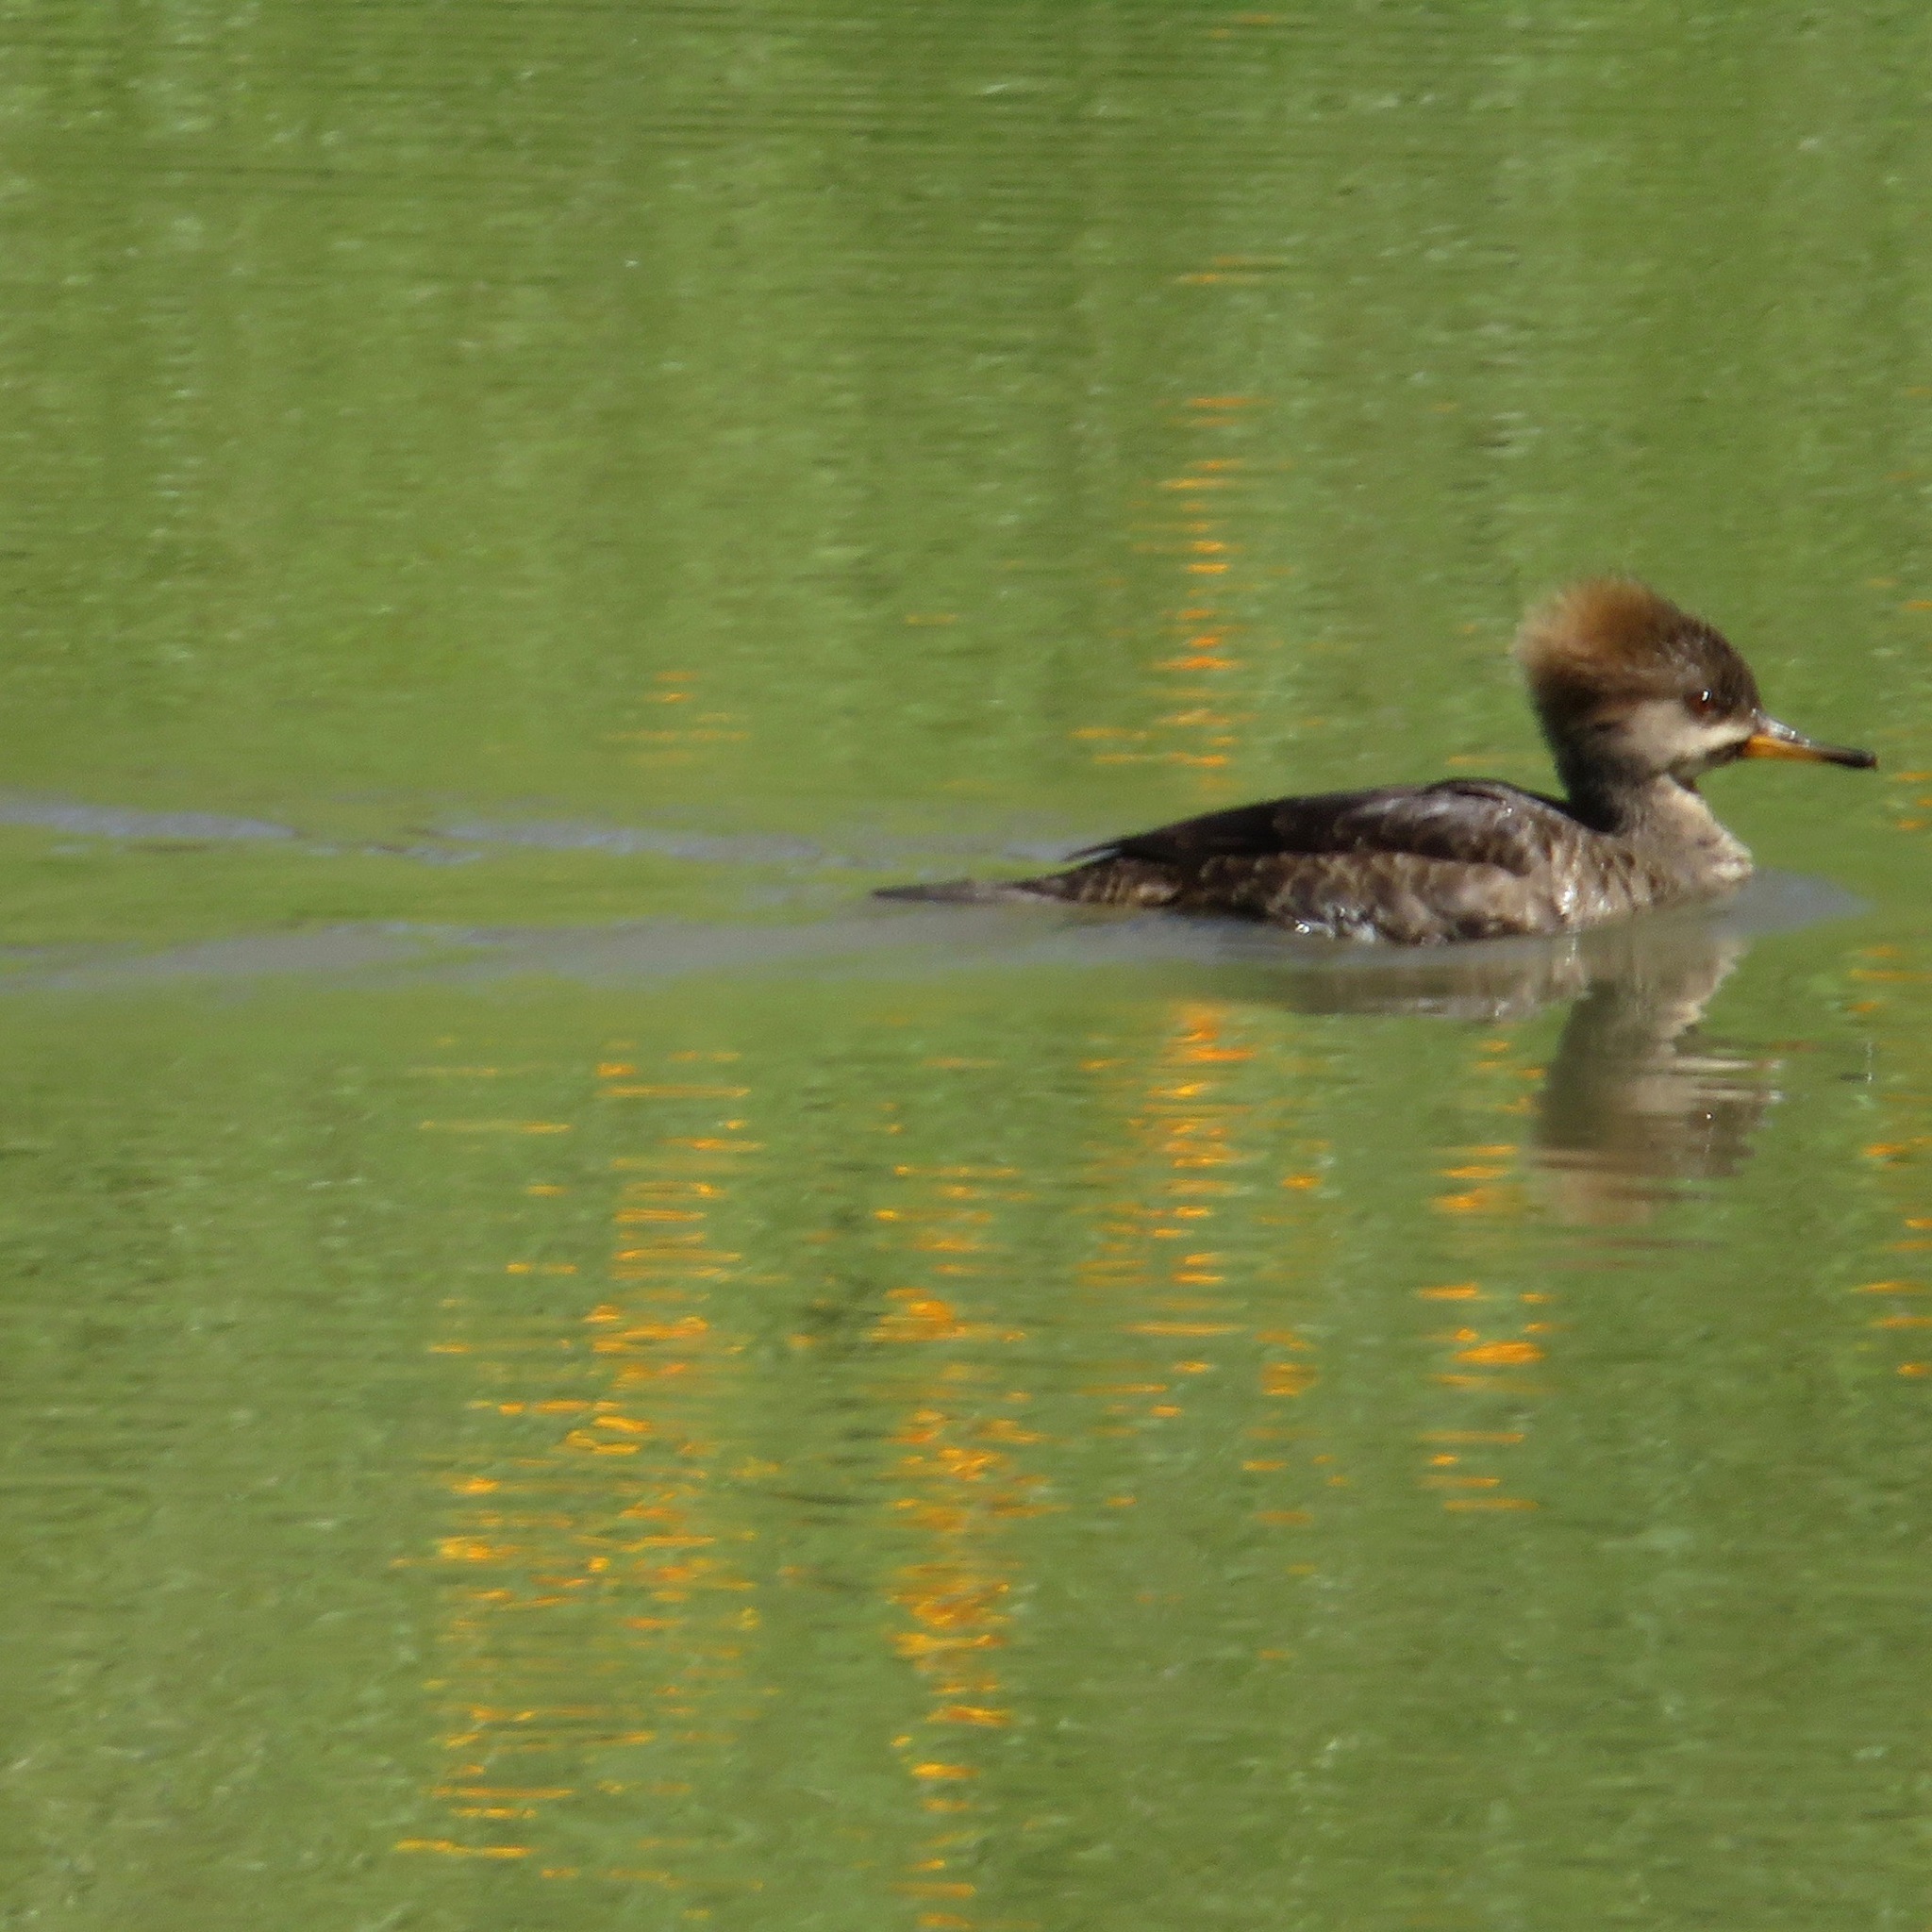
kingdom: Animalia
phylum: Chordata
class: Aves
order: Anseriformes
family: Anatidae
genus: Lophodytes
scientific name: Lophodytes cucullatus
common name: Hooded merganser
